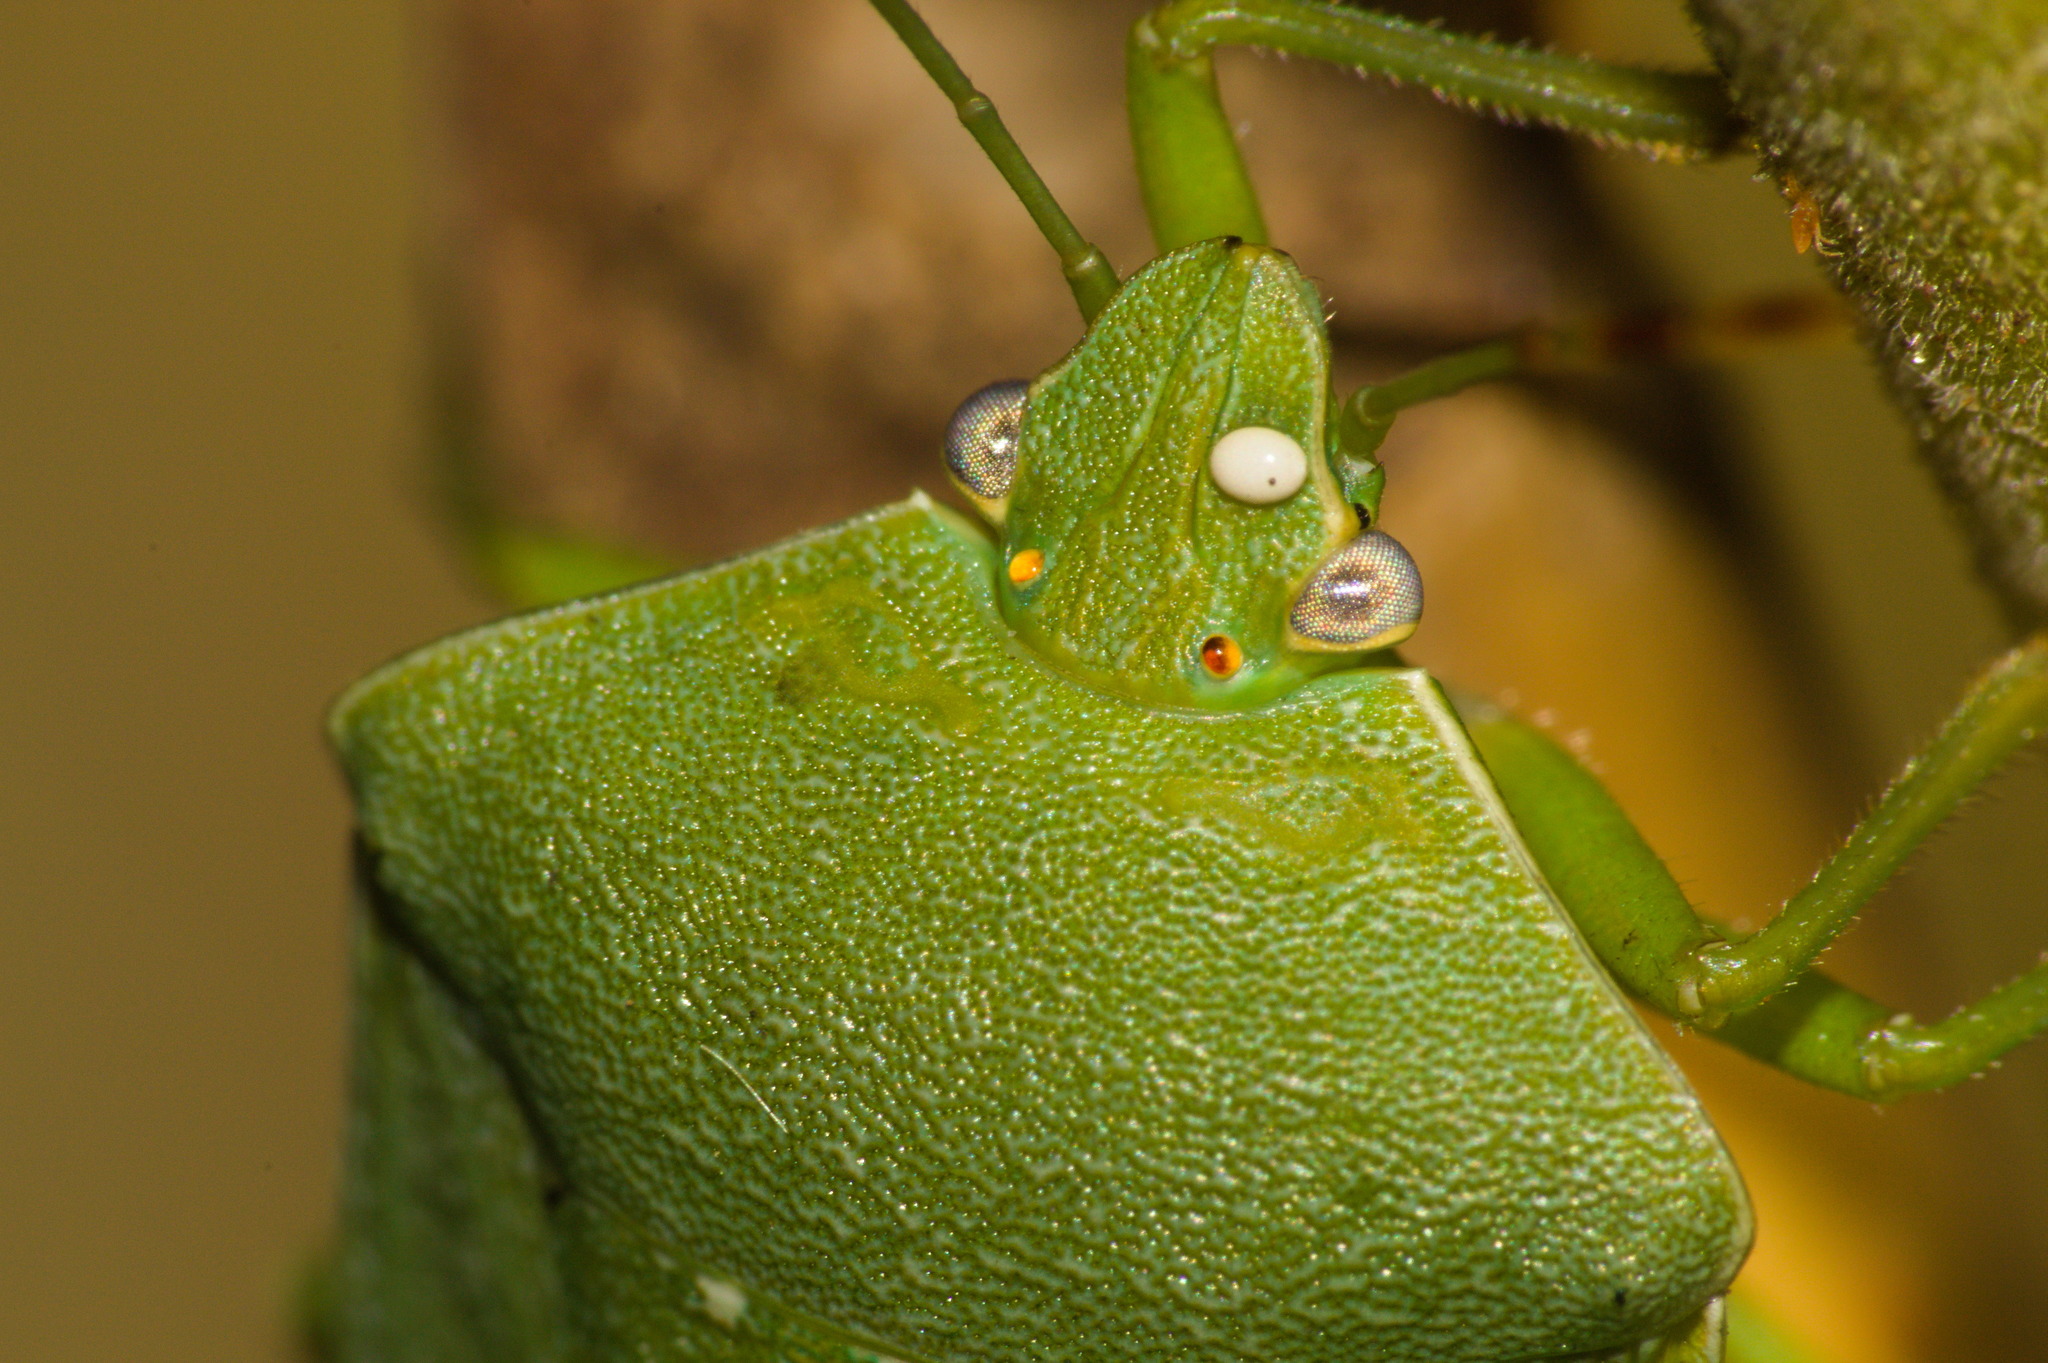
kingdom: Animalia
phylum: Arthropoda
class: Insecta
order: Hemiptera
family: Pentatomidae
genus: Nezara
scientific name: Nezara viridula
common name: Southern green stink bug
